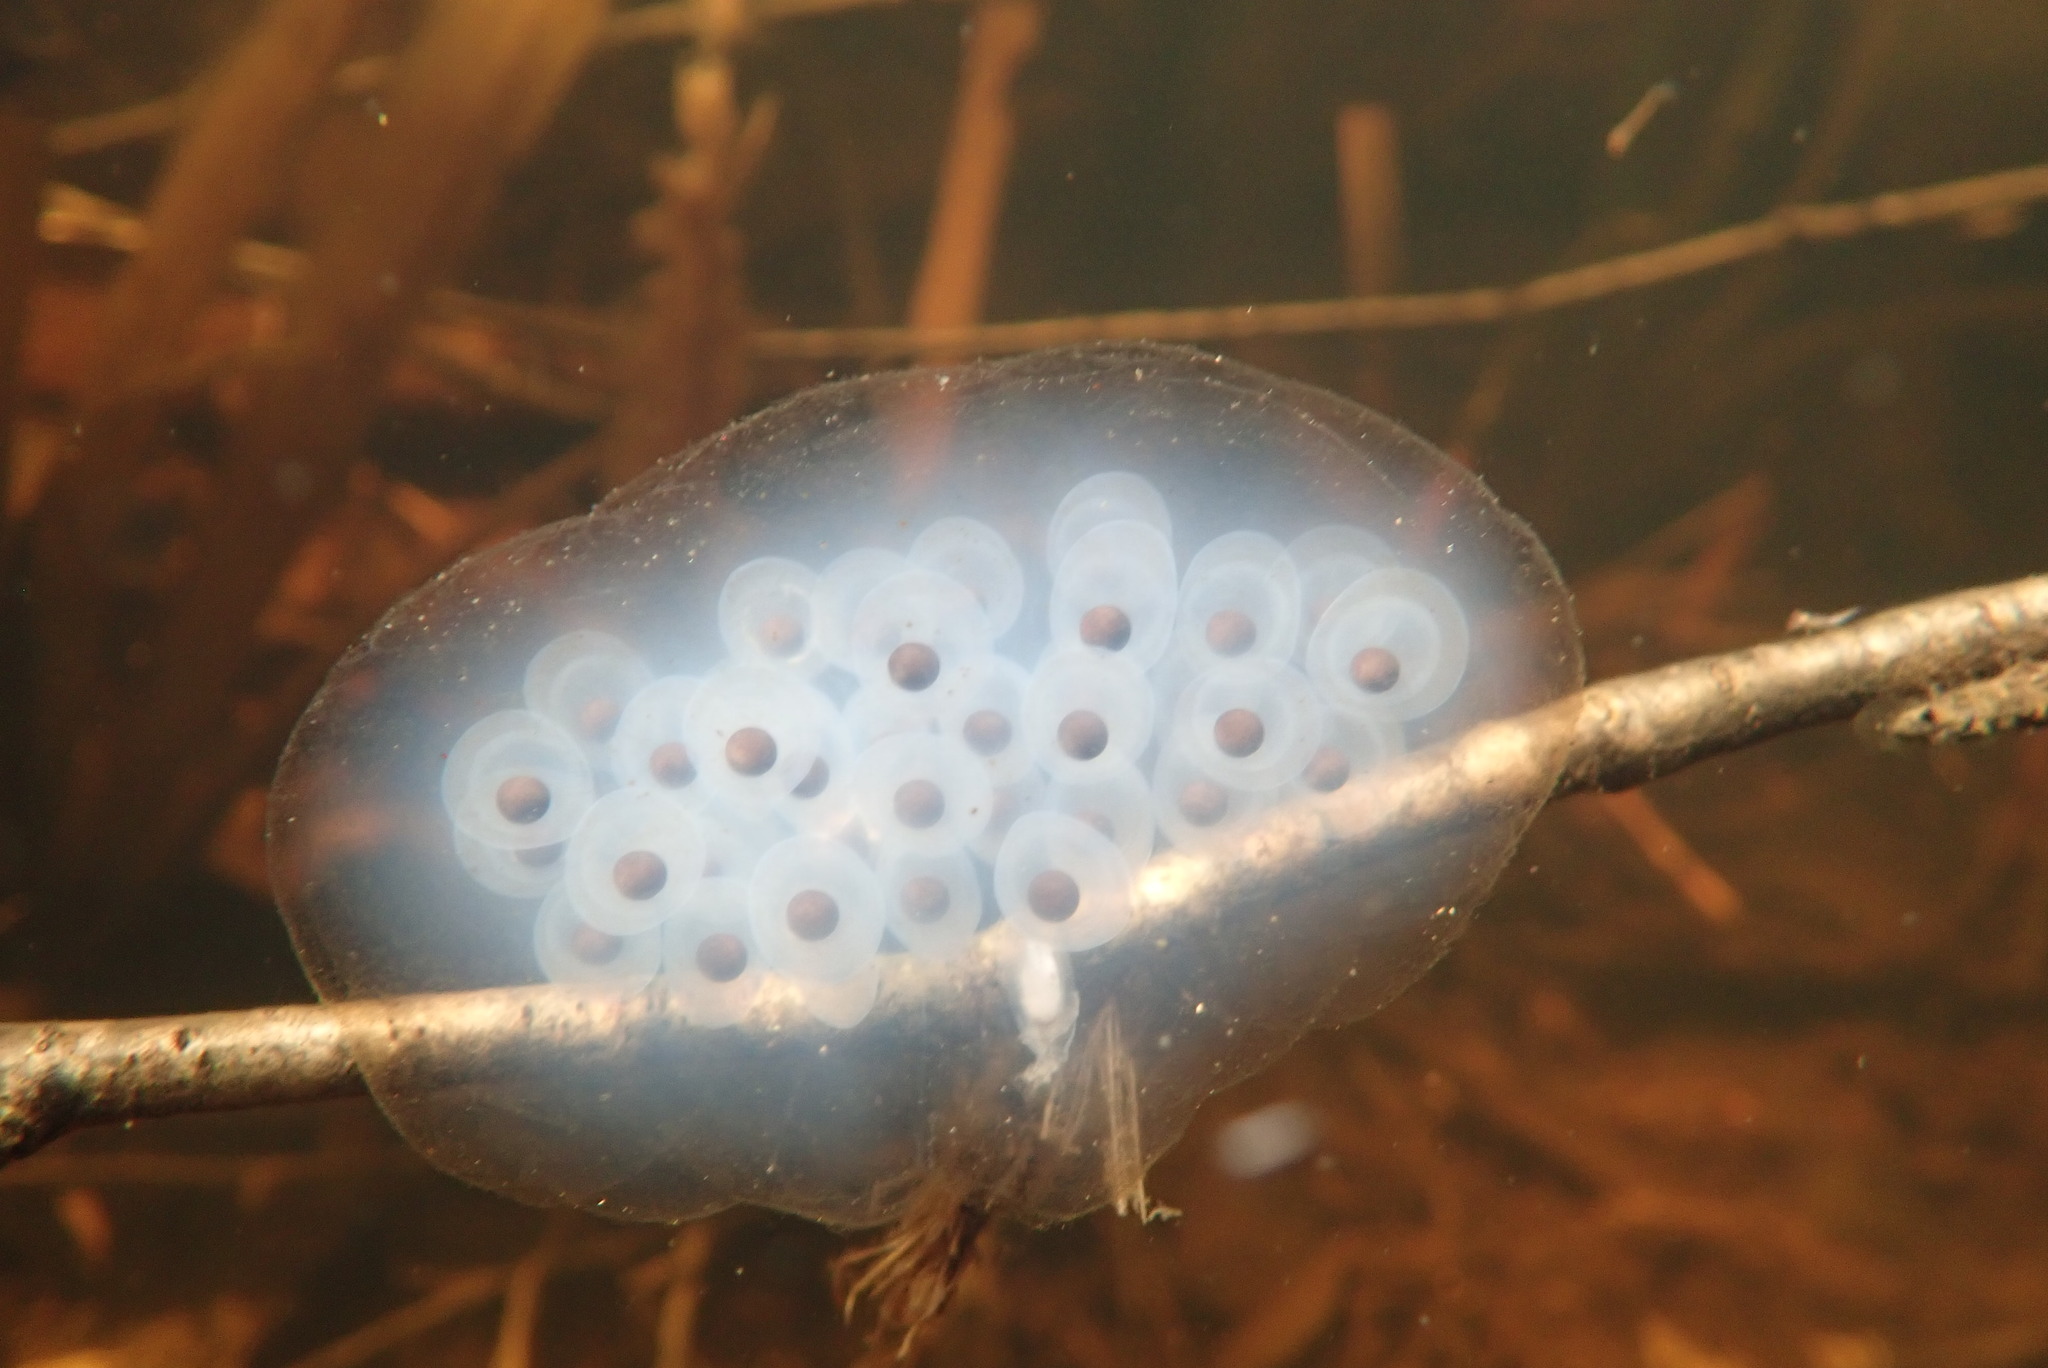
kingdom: Animalia
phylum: Chordata
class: Amphibia
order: Caudata
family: Ambystomatidae
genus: Ambystoma
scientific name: Ambystoma maculatum
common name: Spotted salamander
